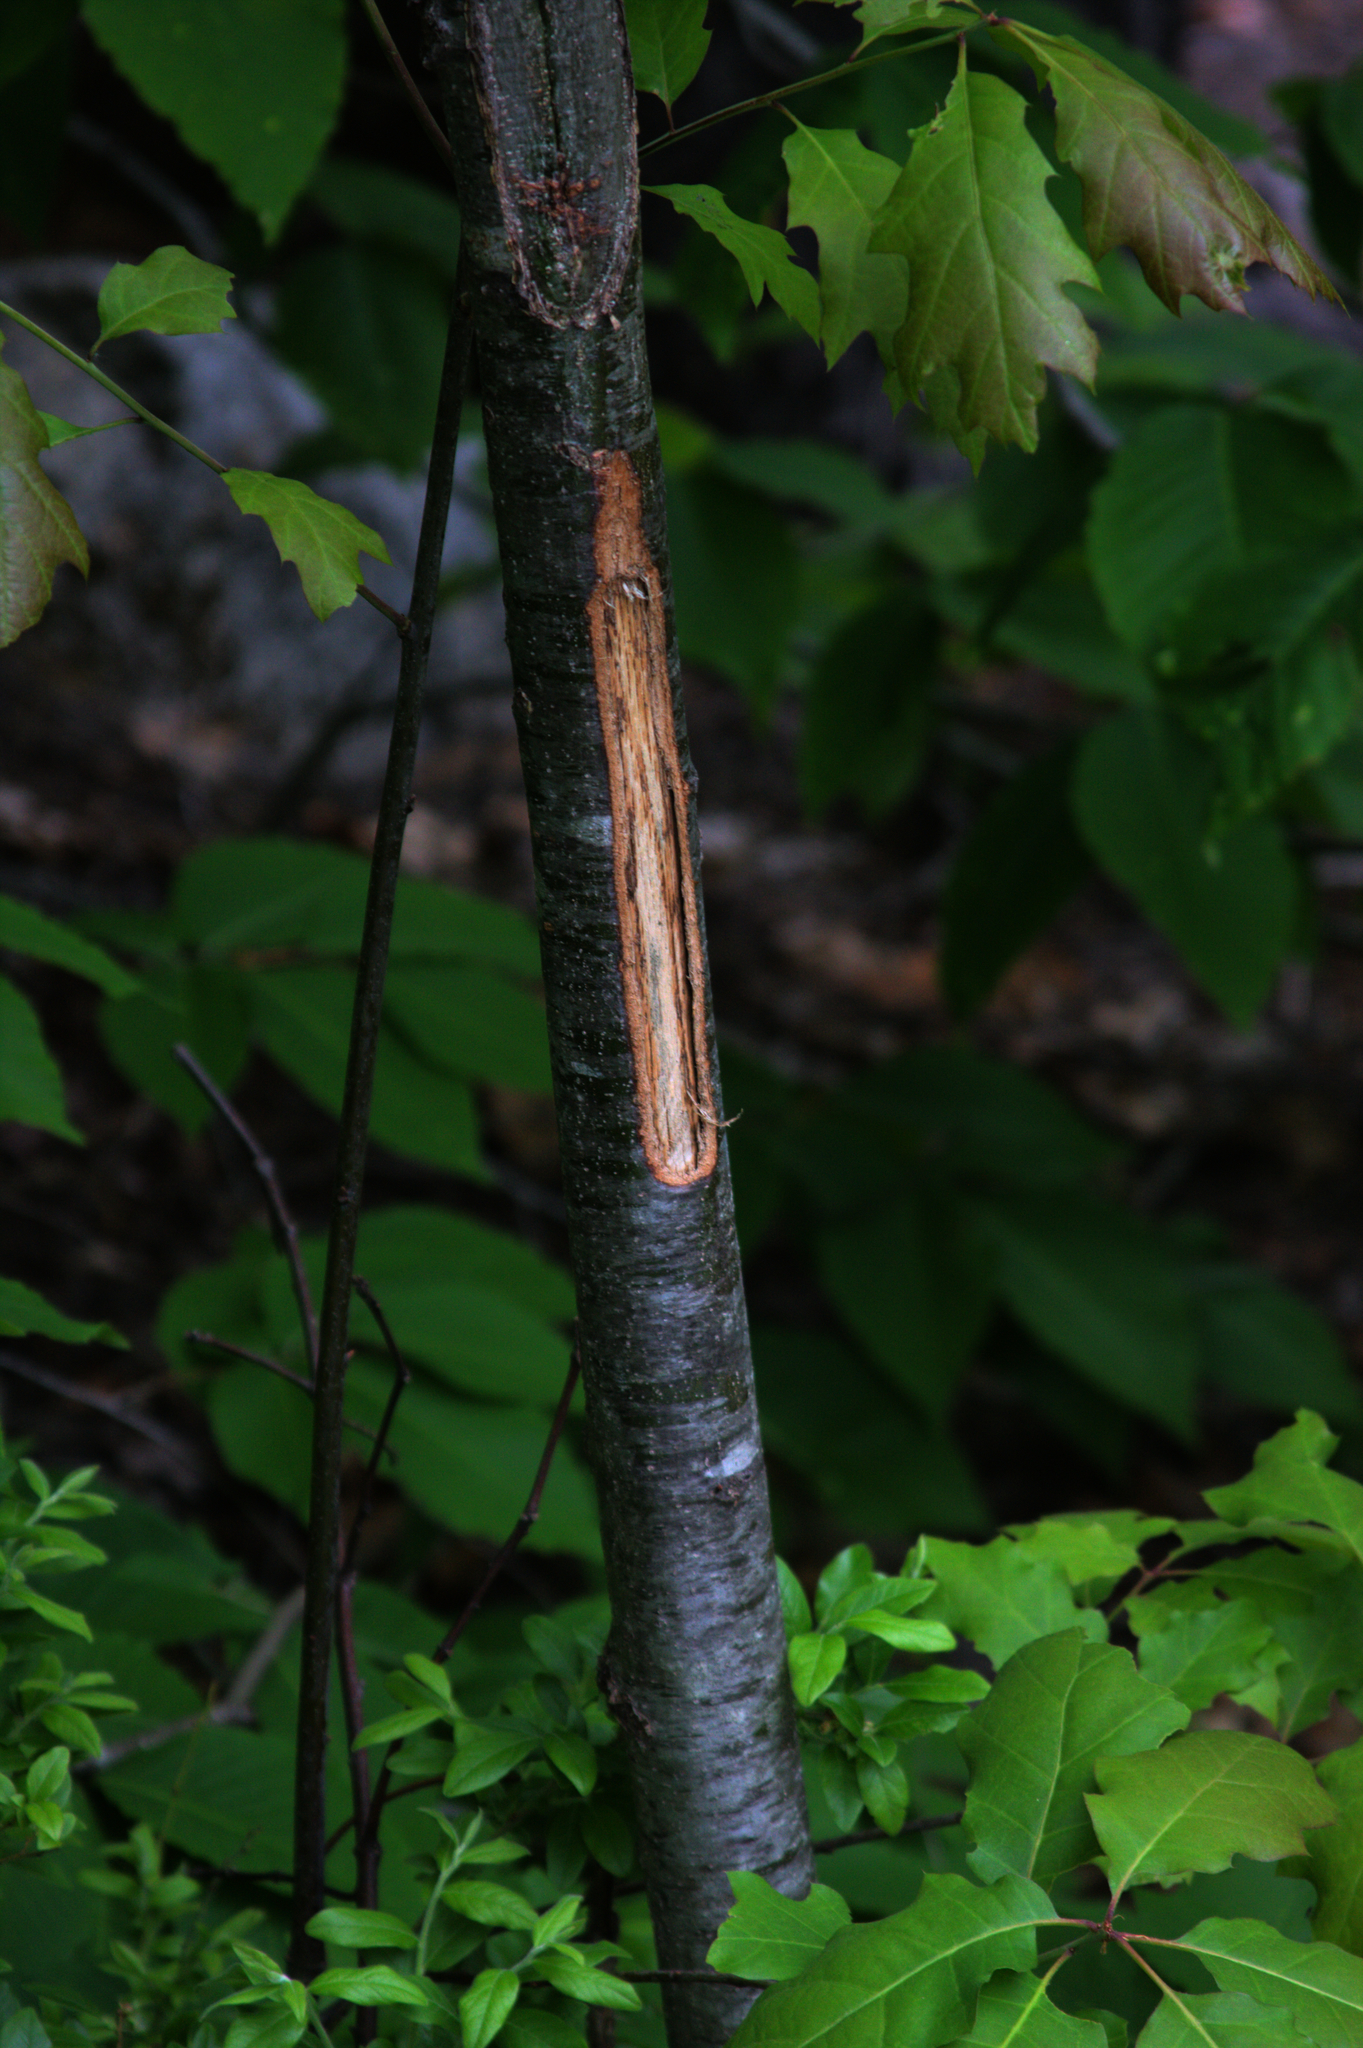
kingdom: Plantae
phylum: Tracheophyta
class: Magnoliopsida
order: Fagales
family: Fagaceae
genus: Quercus
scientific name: Quercus rubra
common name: Red oak
